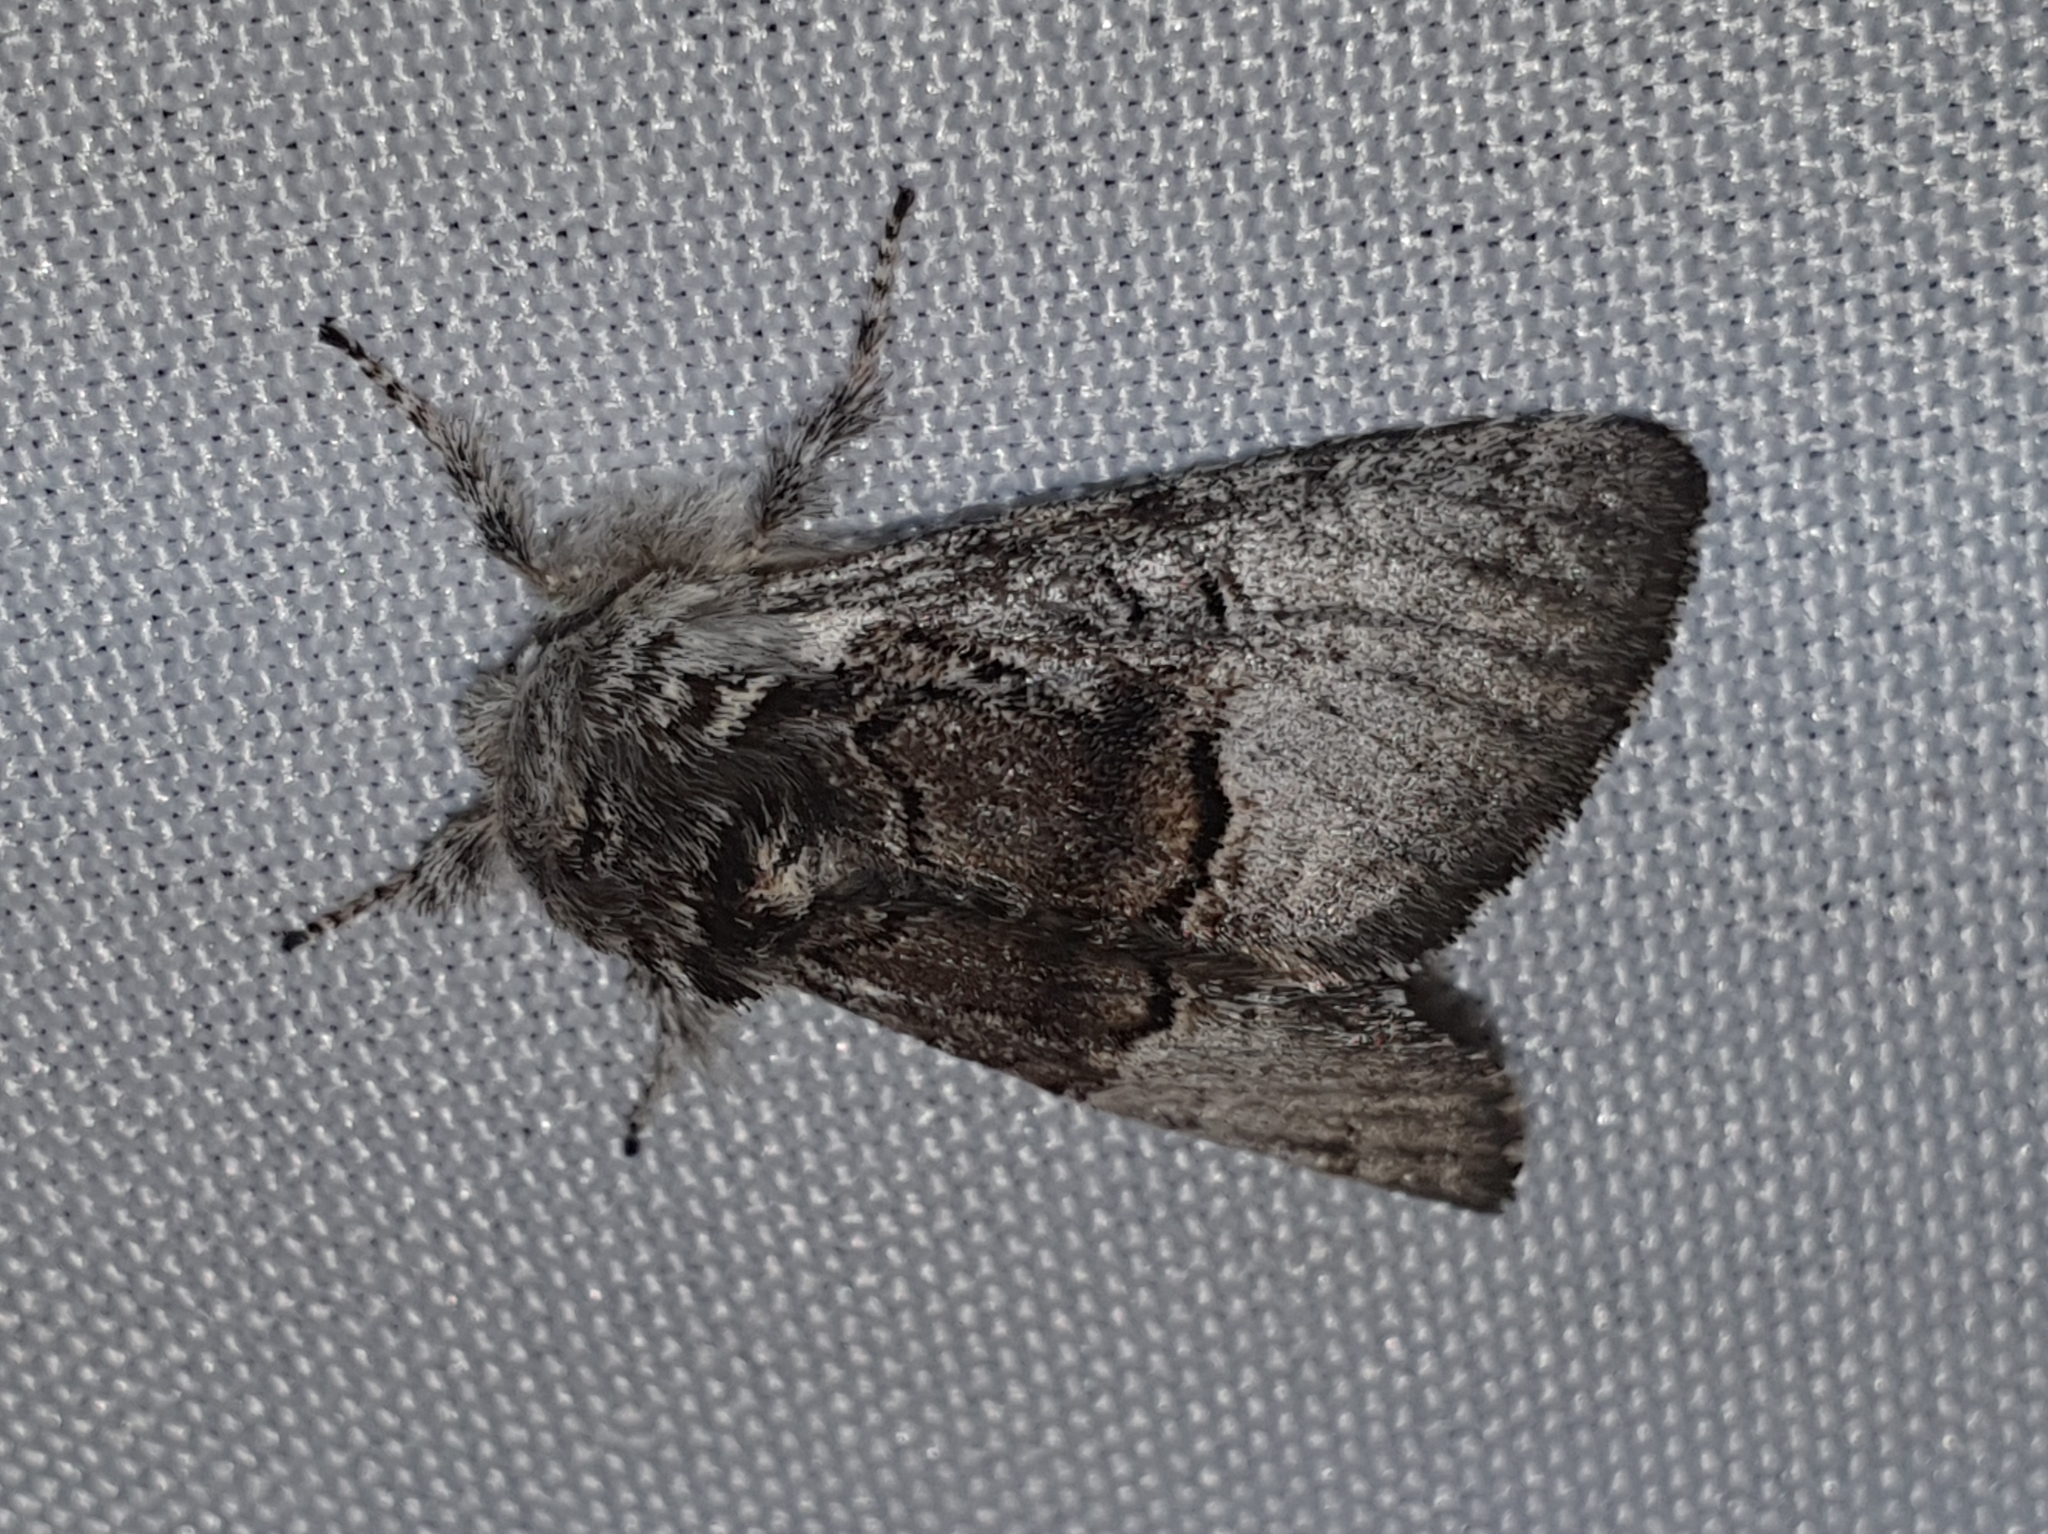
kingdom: Animalia
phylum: Arthropoda
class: Insecta
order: Lepidoptera
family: Noctuidae
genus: Colocasia
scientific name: Colocasia coryli
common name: Nut-tree tussock
